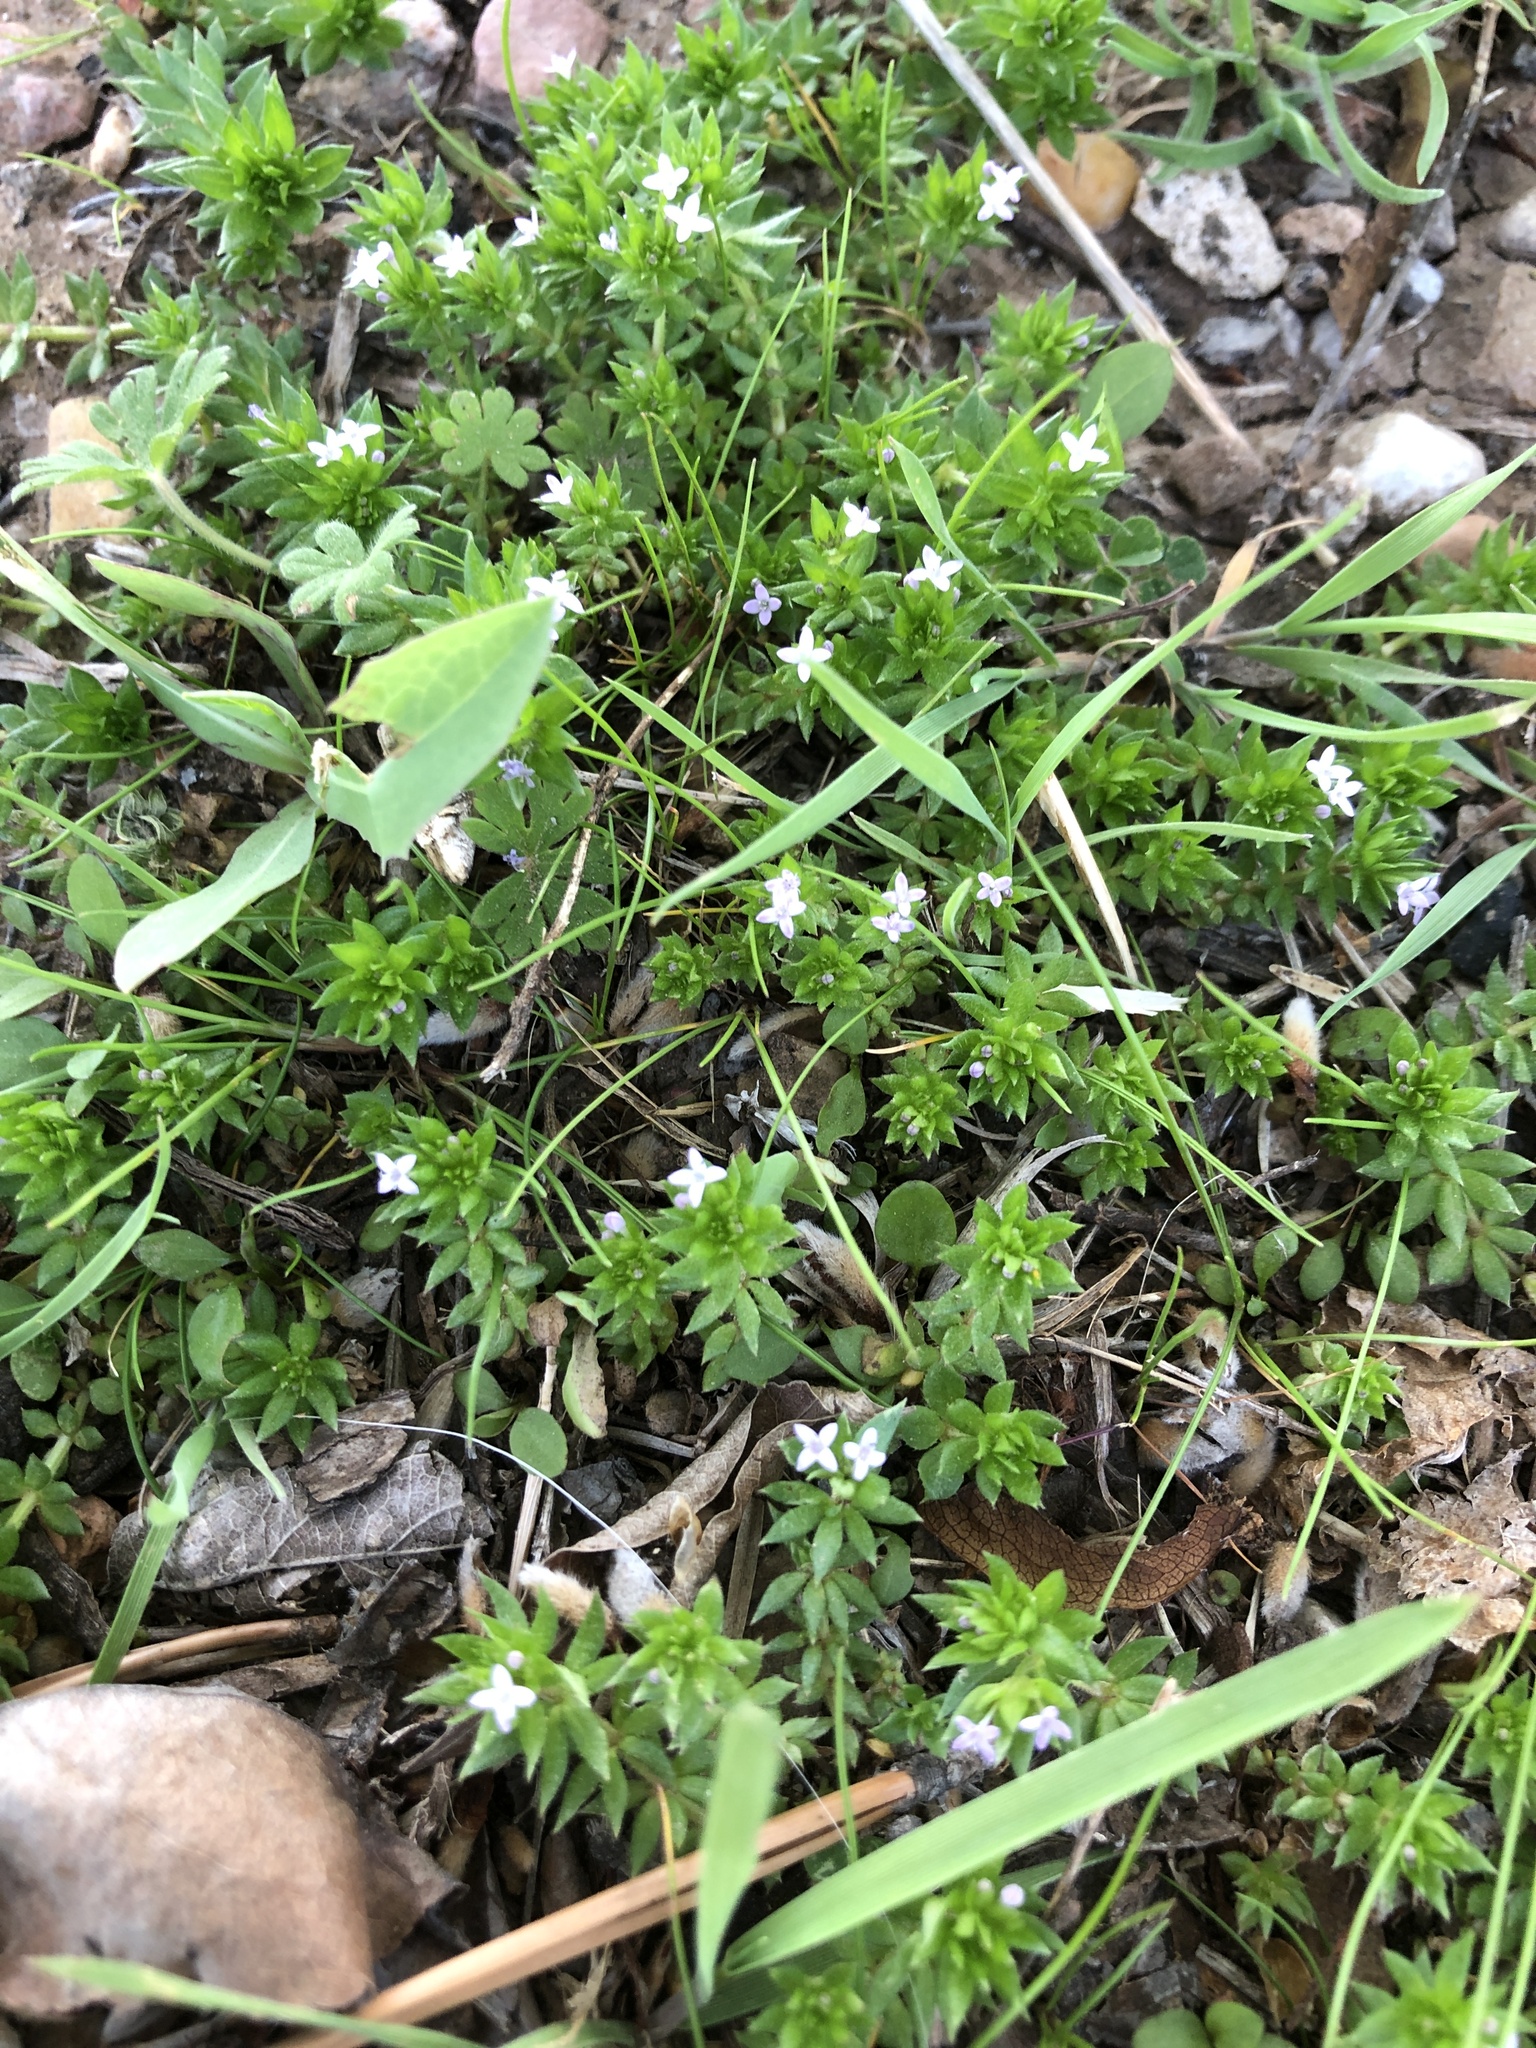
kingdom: Plantae
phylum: Tracheophyta
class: Magnoliopsida
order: Gentianales
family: Rubiaceae
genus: Sherardia
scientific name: Sherardia arvensis
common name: Field madder
